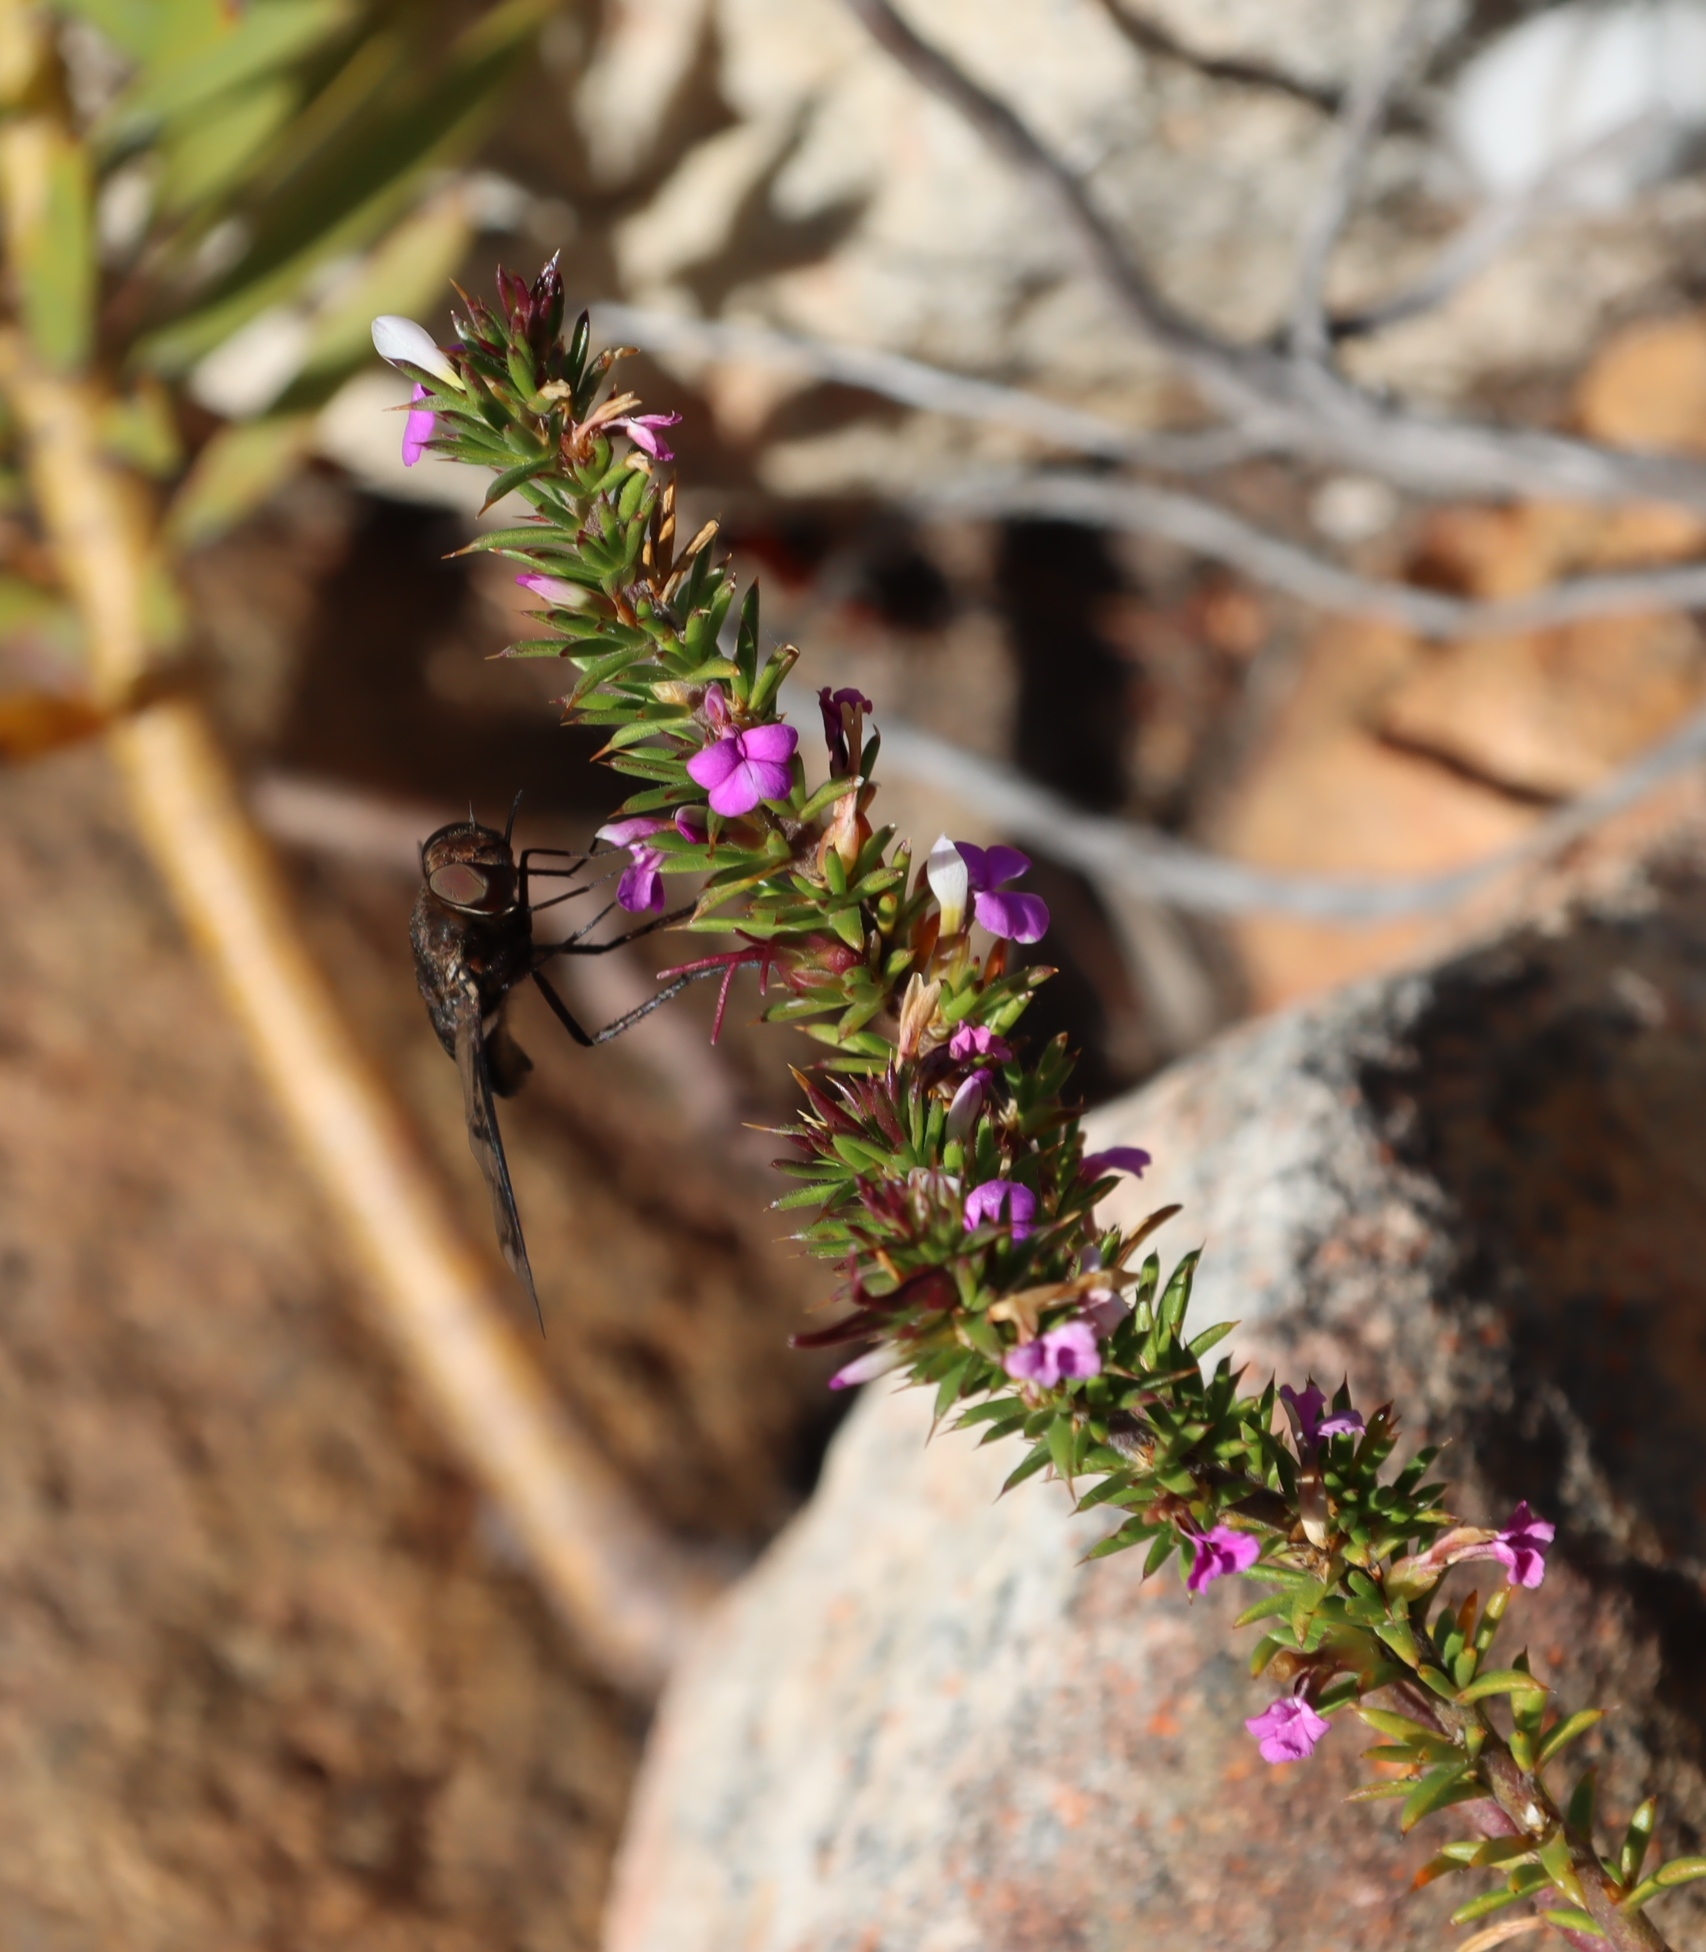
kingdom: Plantae
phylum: Tracheophyta
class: Magnoliopsida
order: Fabales
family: Polygalaceae
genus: Muraltia
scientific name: Muraltia heisteria
